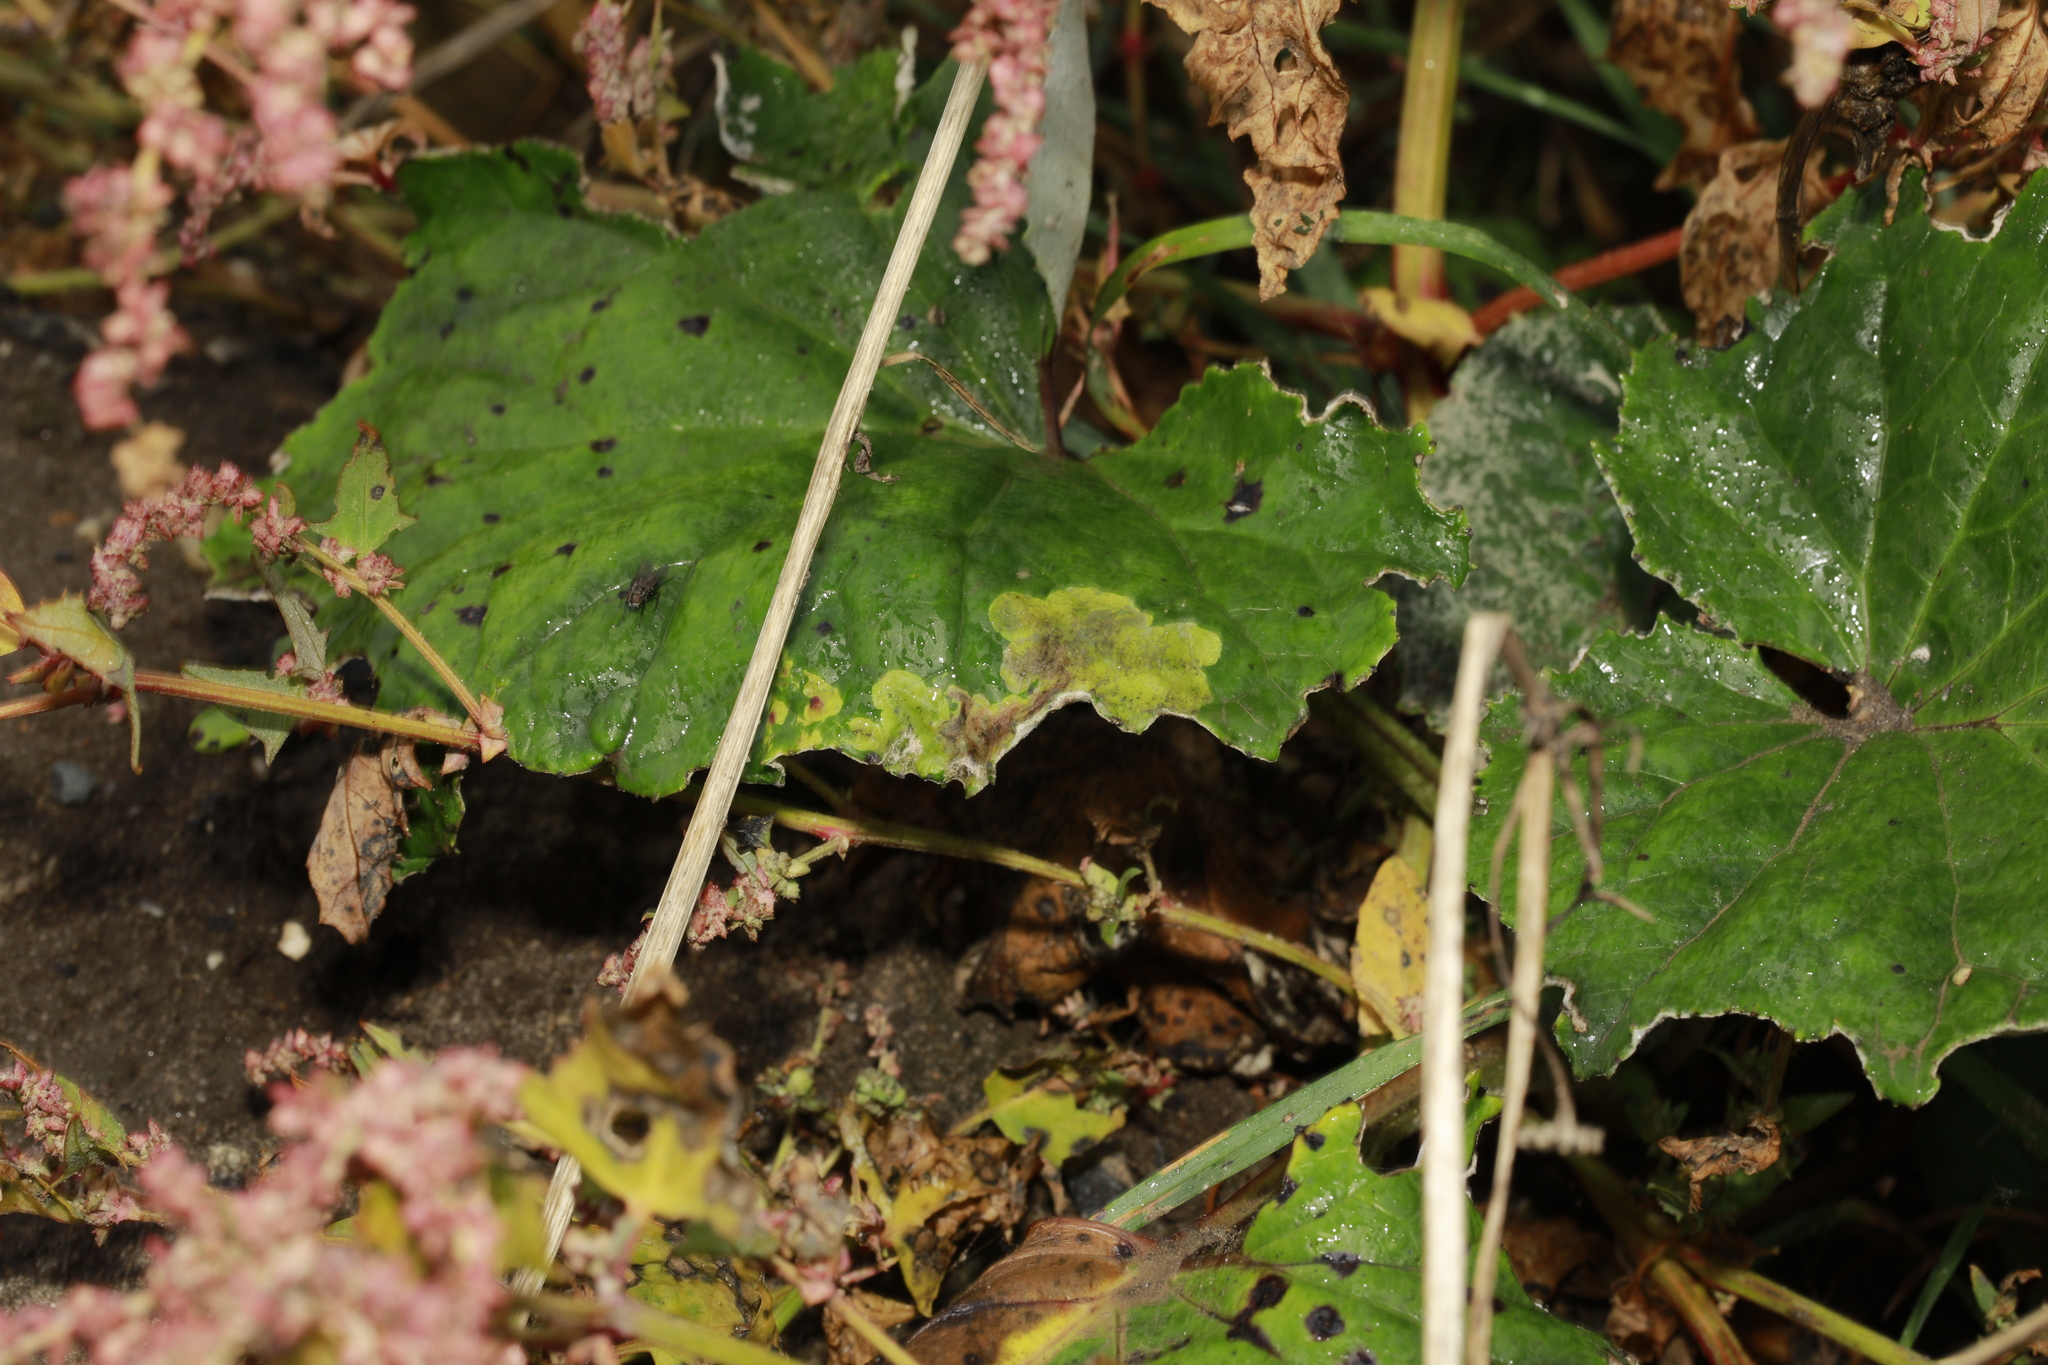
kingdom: Animalia
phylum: Arthropoda
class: Insecta
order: Diptera
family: Tephritidae
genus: Acidia
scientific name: Acidia cognata
